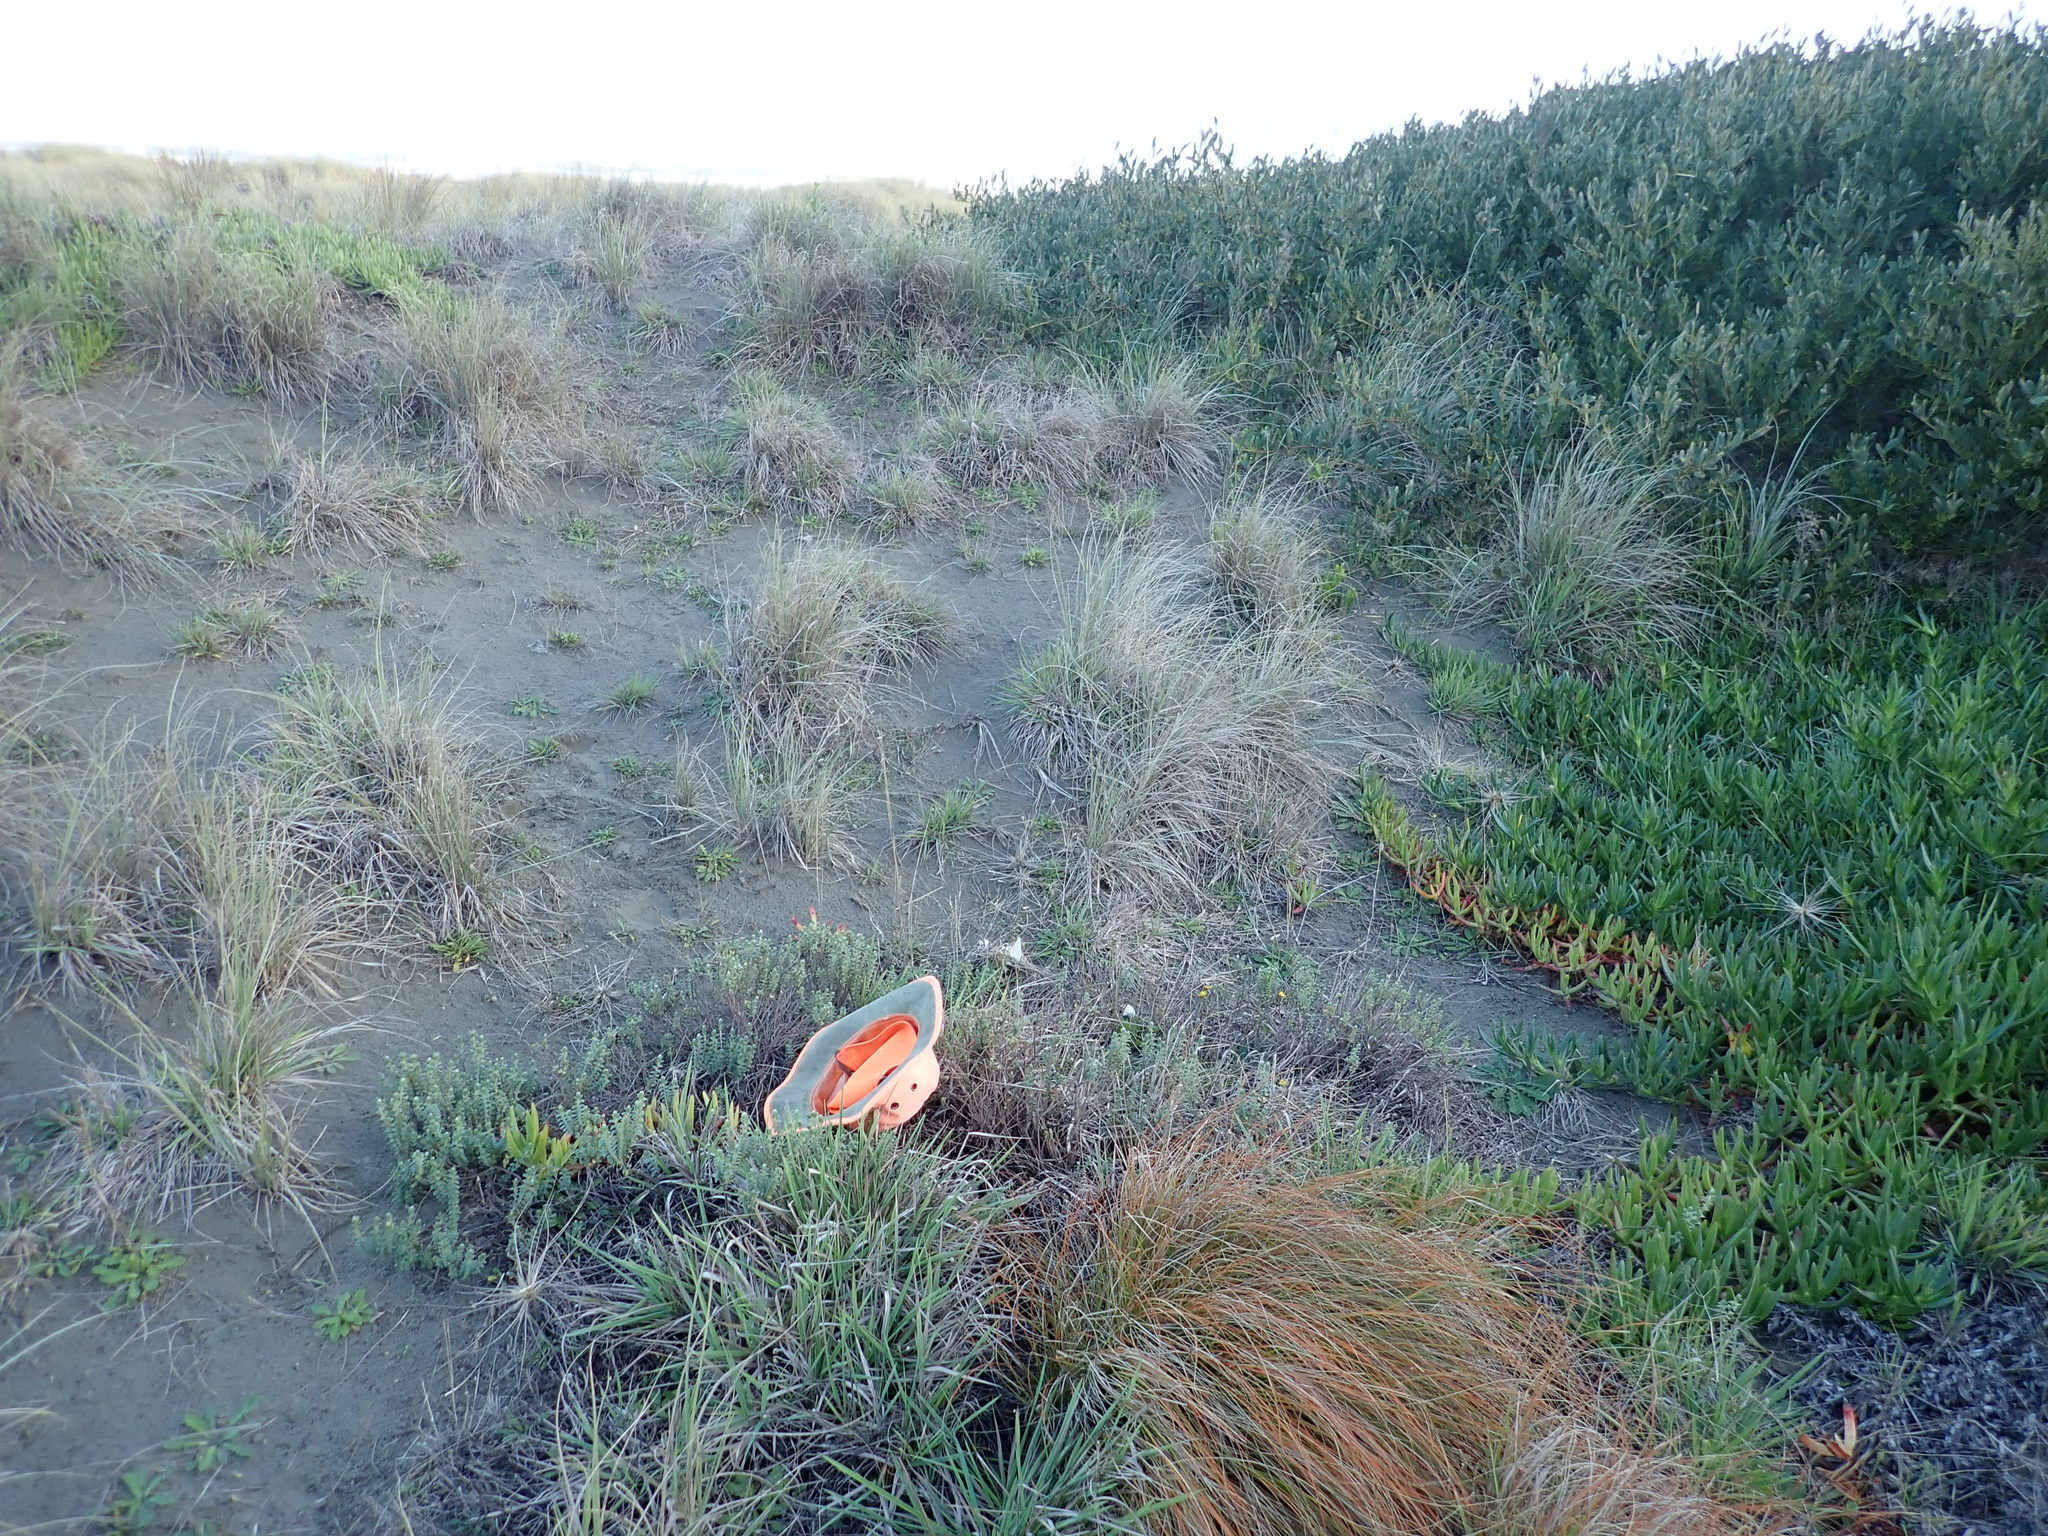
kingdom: Plantae
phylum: Tracheophyta
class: Magnoliopsida
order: Malvales
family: Thymelaeaceae
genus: Pimelea
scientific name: Pimelea villosa
